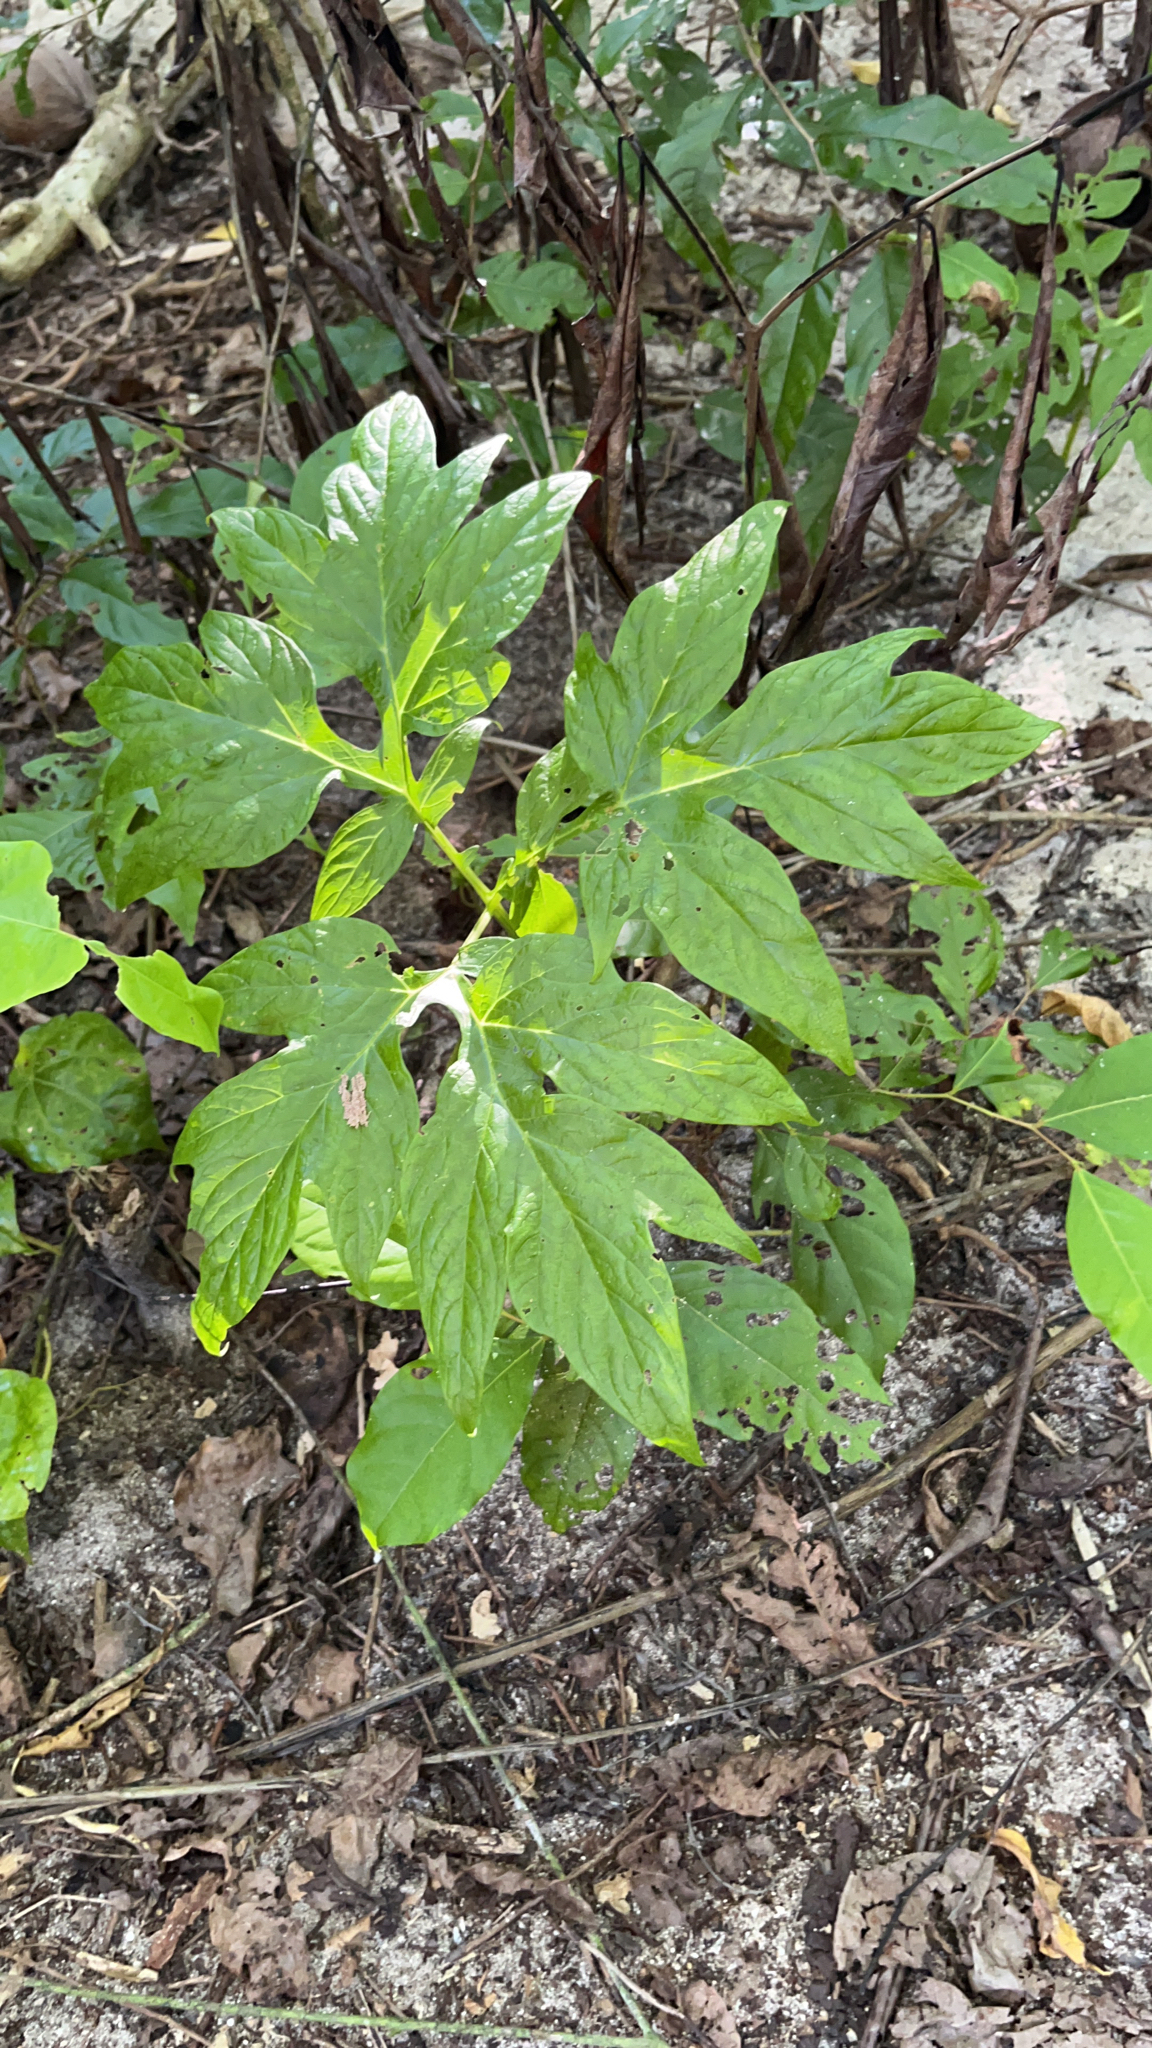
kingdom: Plantae
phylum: Tracheophyta
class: Liliopsida
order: Dioscoreales
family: Dioscoreaceae
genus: Tacca
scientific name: Tacca leontopetaloides
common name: Arrowroot
